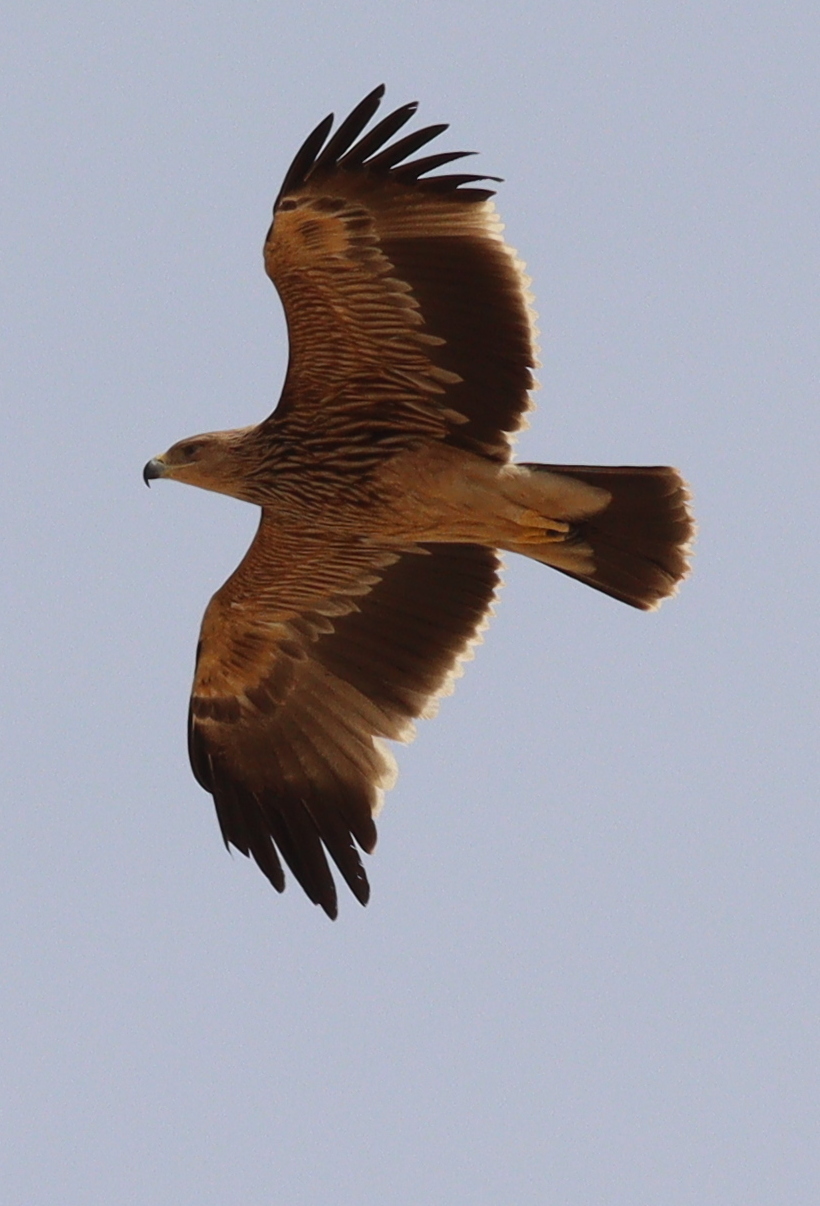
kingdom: Animalia
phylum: Chordata
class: Aves
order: Accipitriformes
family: Accipitridae
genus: Aquila
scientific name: Aquila heliaca
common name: Eastern imperial eagle
